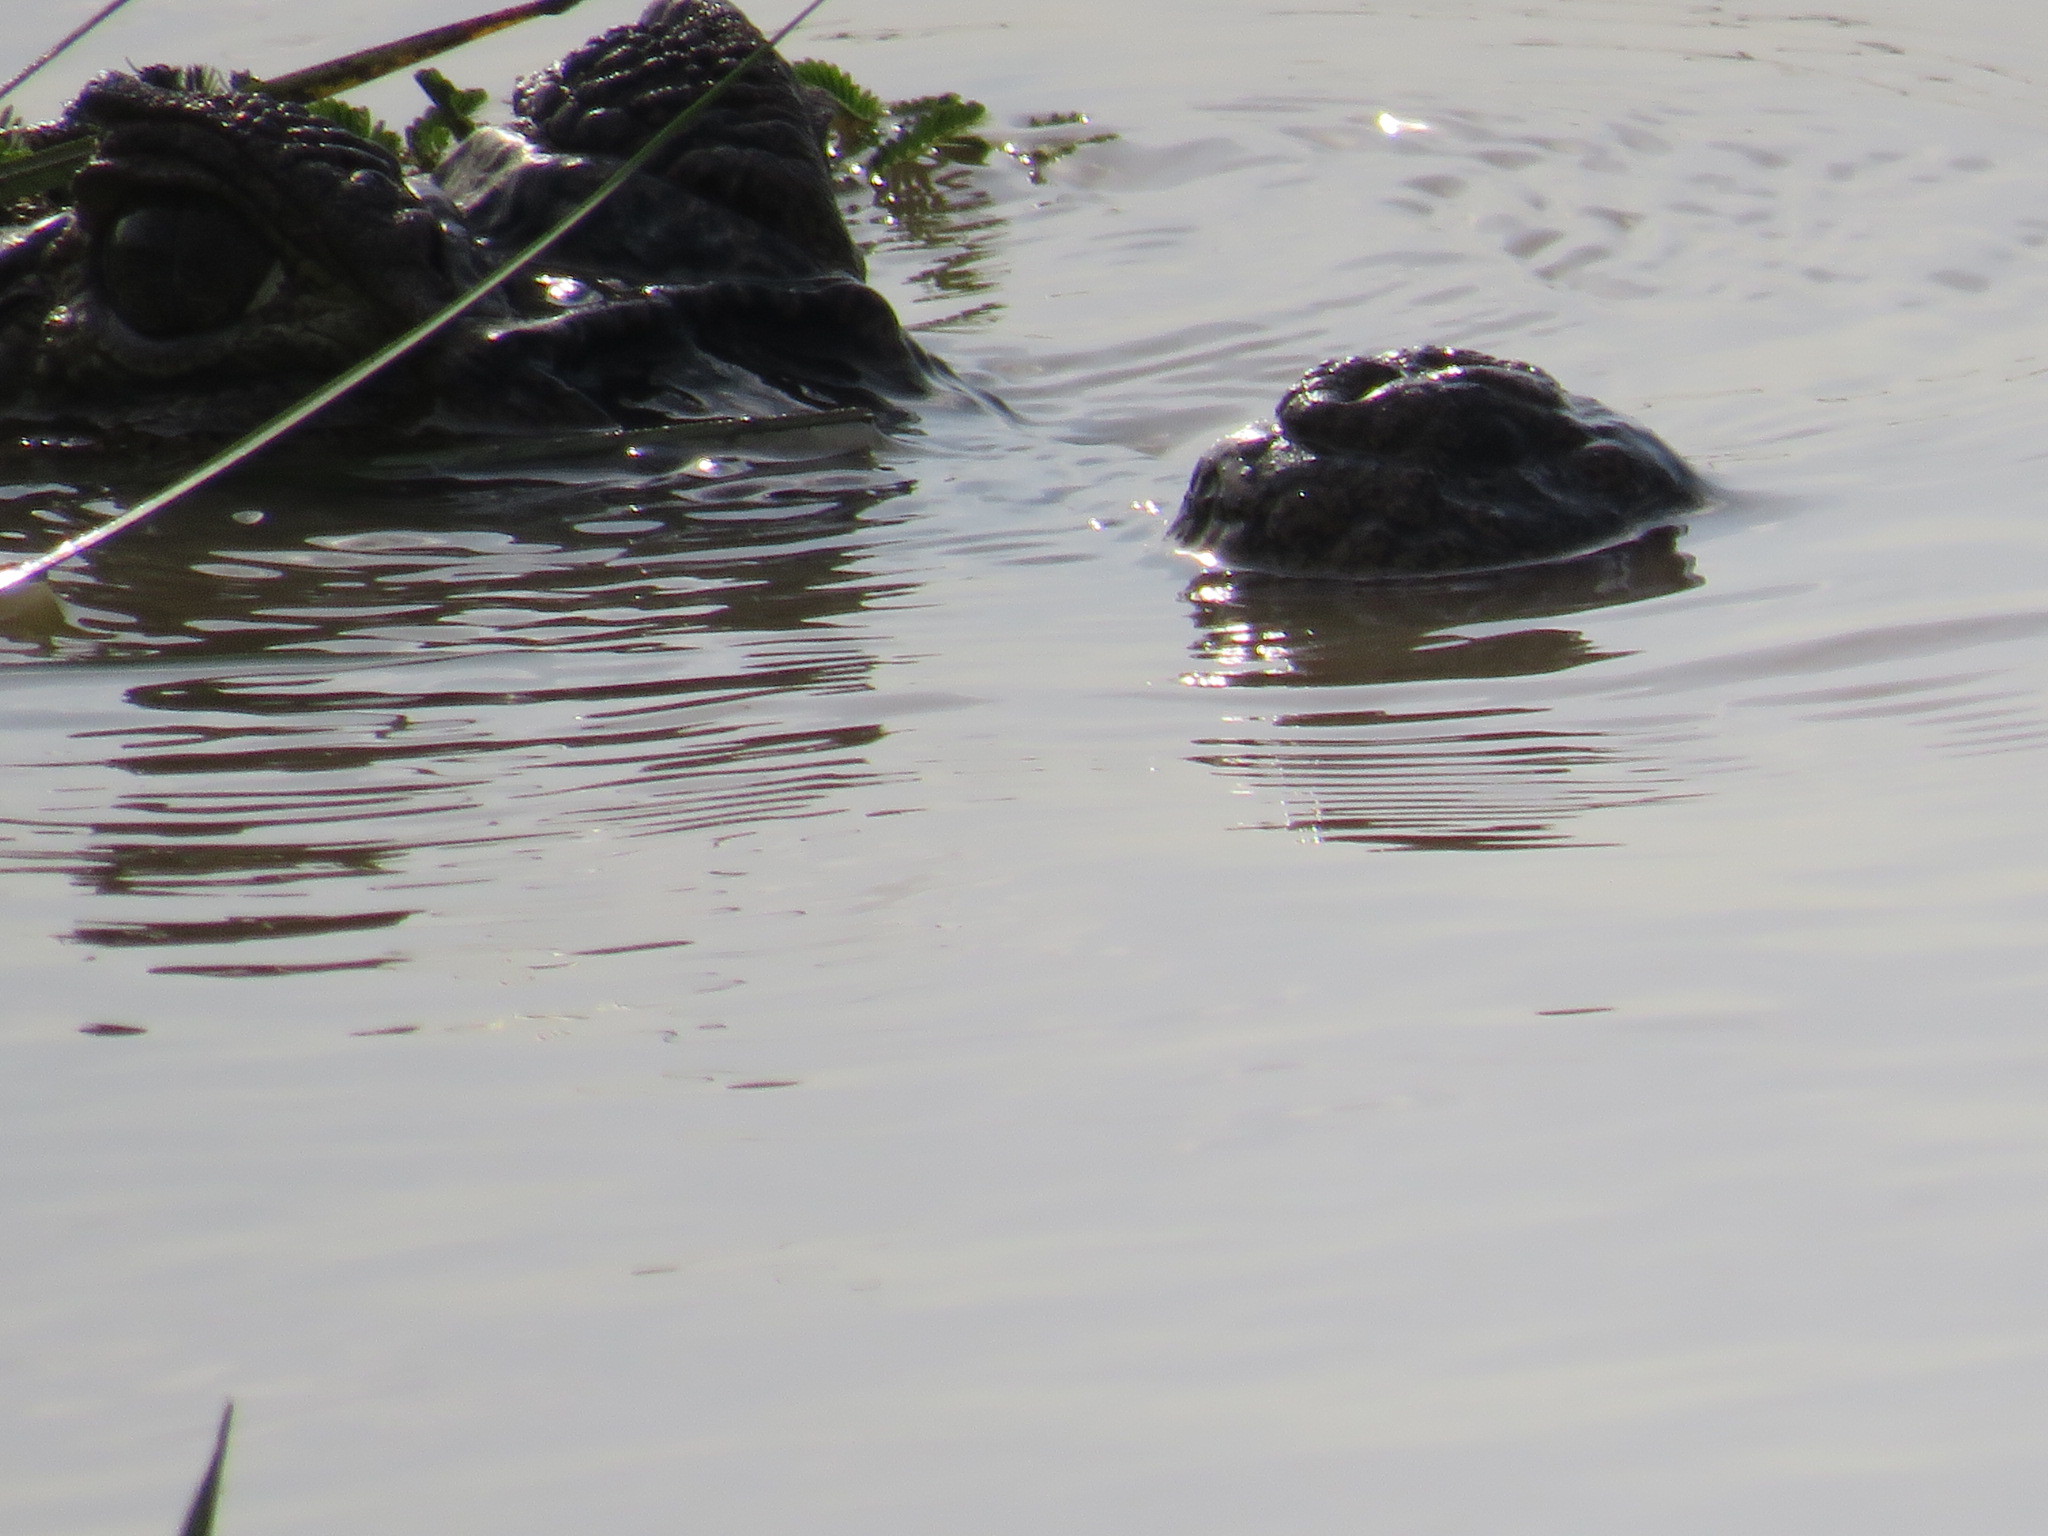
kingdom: Animalia
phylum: Chordata
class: Crocodylia
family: Alligatoridae
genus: Caiman
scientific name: Caiman crocodilus
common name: Common caiman
